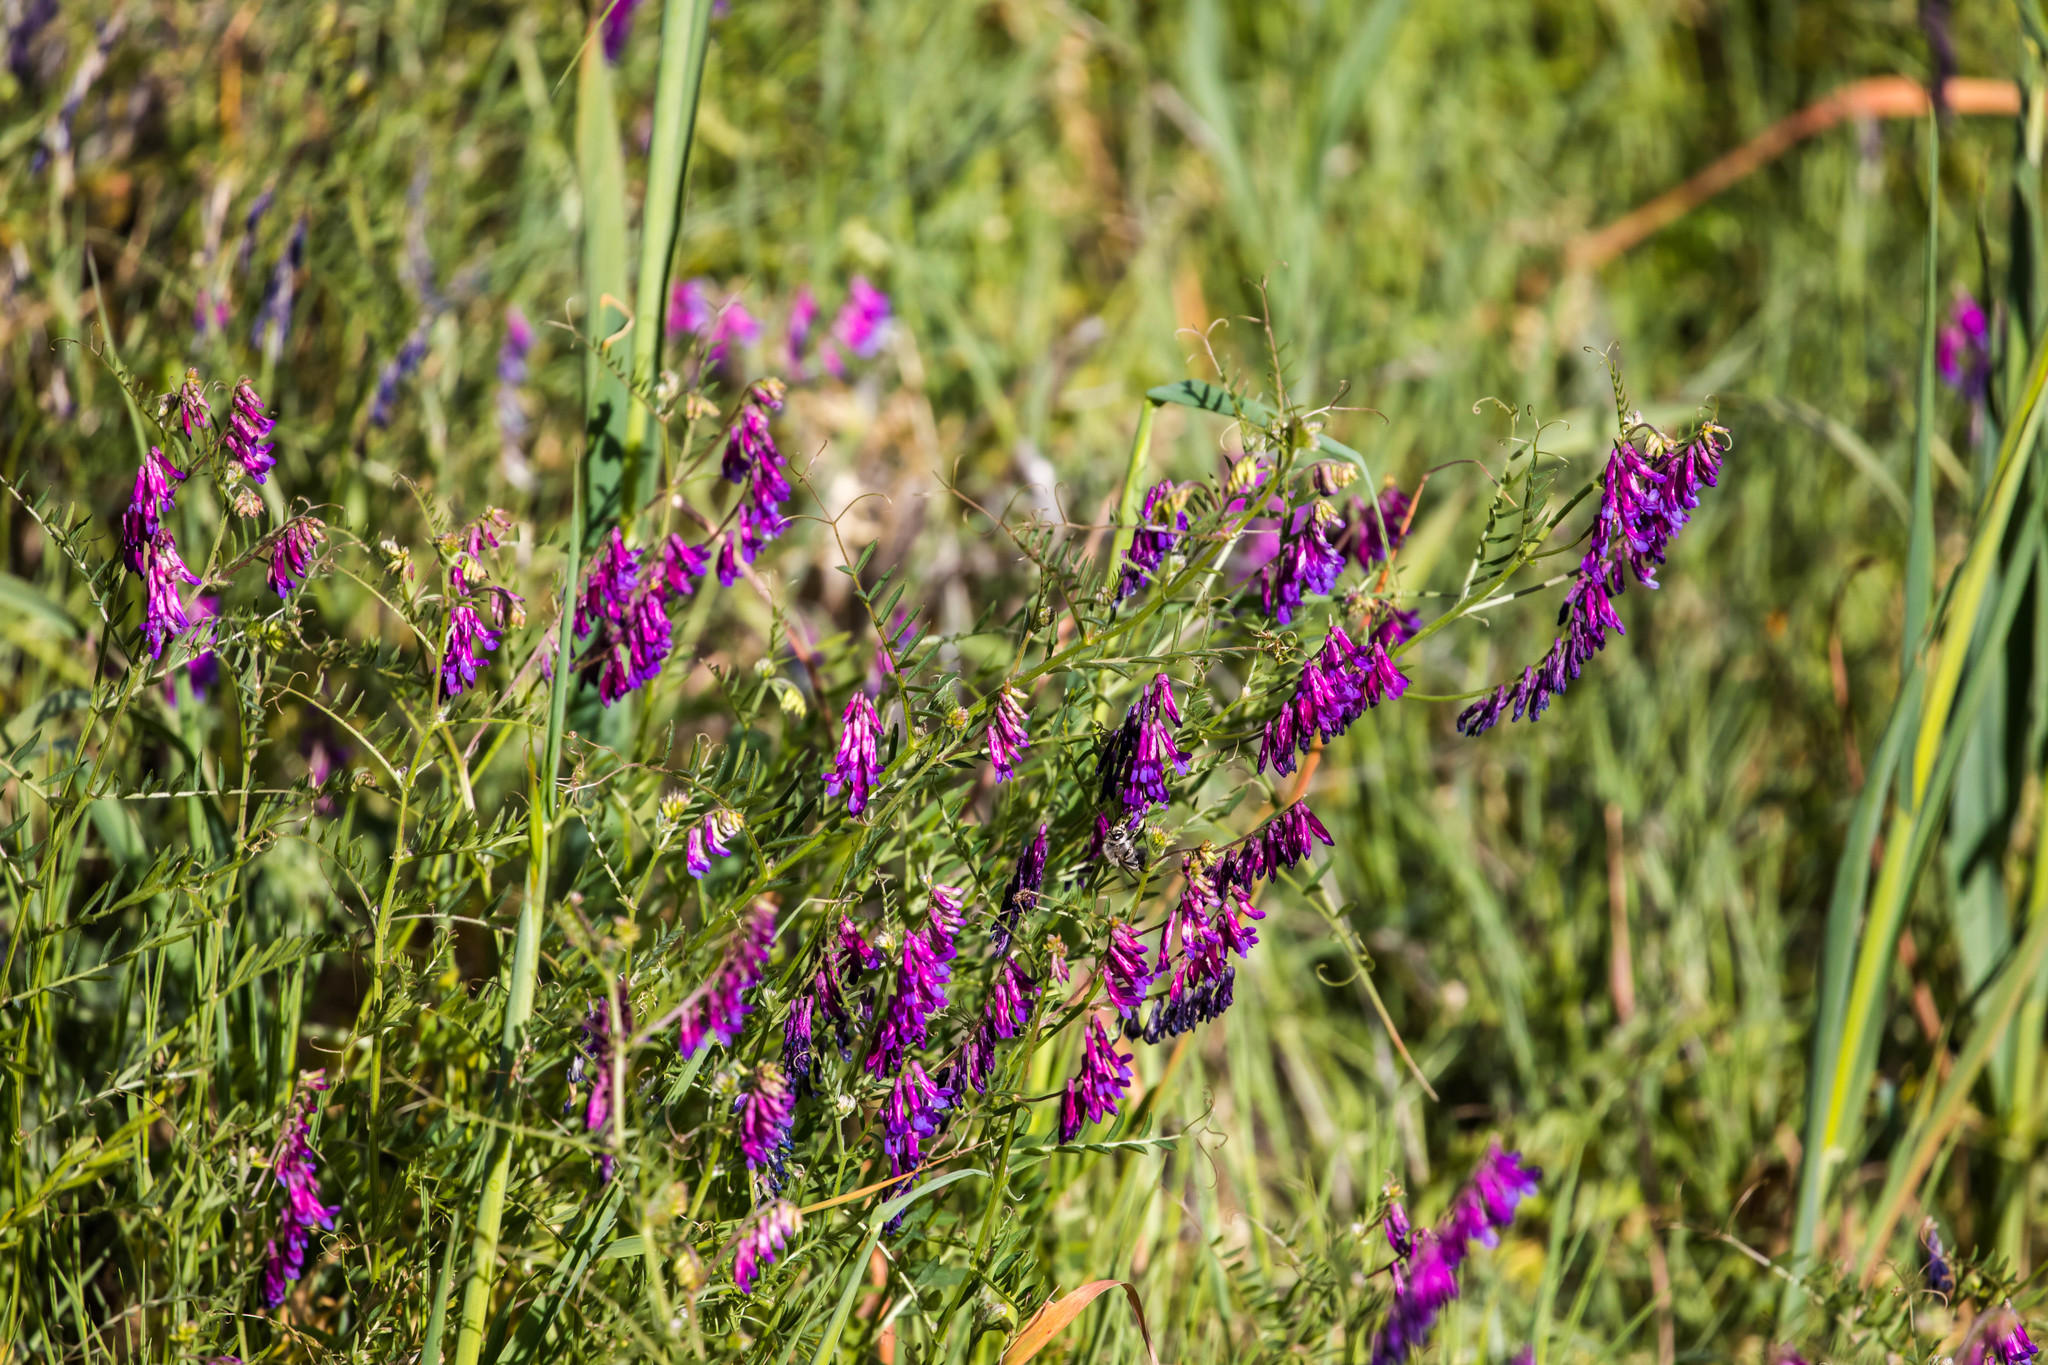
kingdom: Plantae
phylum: Tracheophyta
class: Magnoliopsida
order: Fabales
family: Fabaceae
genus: Vicia
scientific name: Vicia villosa
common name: Fodder vetch
